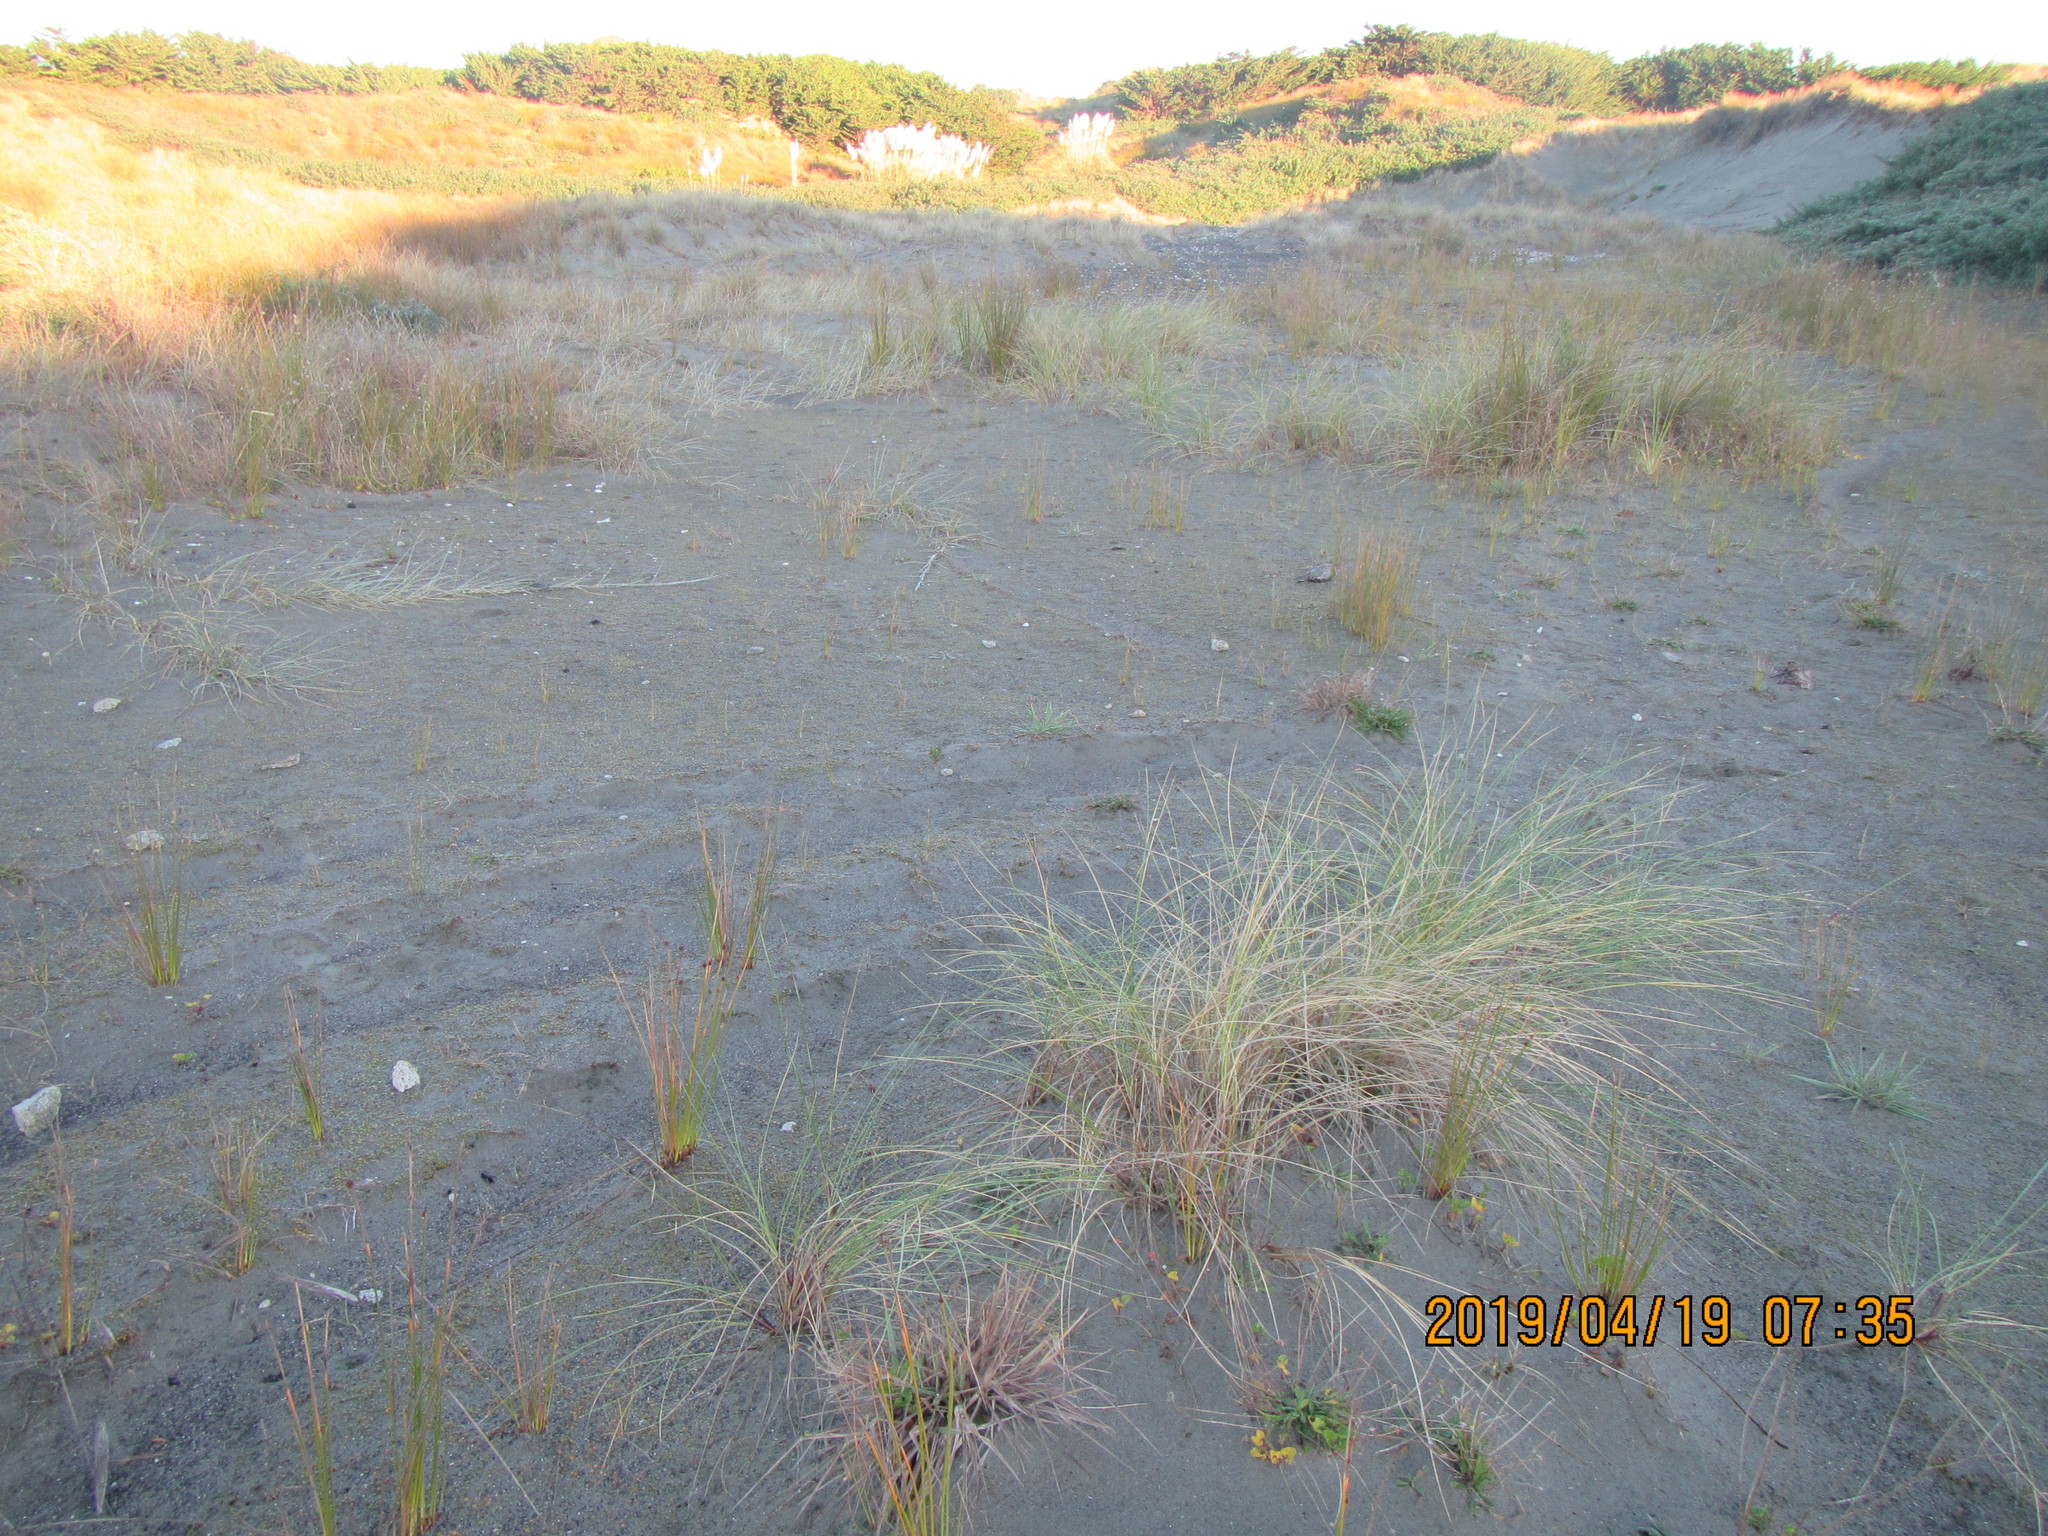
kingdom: Plantae
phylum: Tracheophyta
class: Liliopsida
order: Poales
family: Poaceae
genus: Calamagrostis
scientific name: Calamagrostis arenaria
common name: European beachgrass
